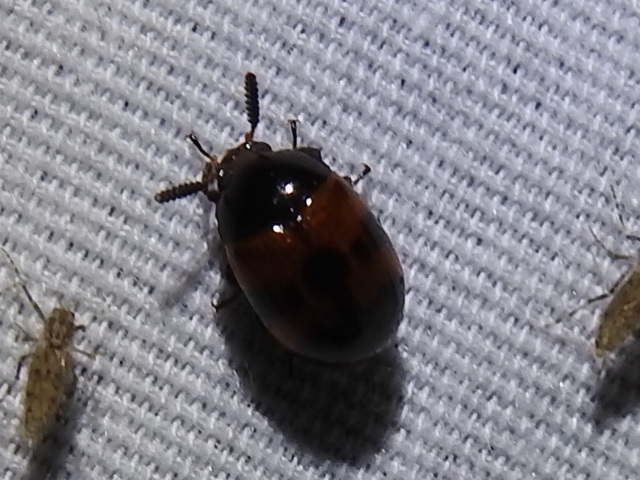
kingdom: Animalia
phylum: Arthropoda
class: Insecta
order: Coleoptera
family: Tenebrionidae
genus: Diaperis
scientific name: Diaperis nigronotata
